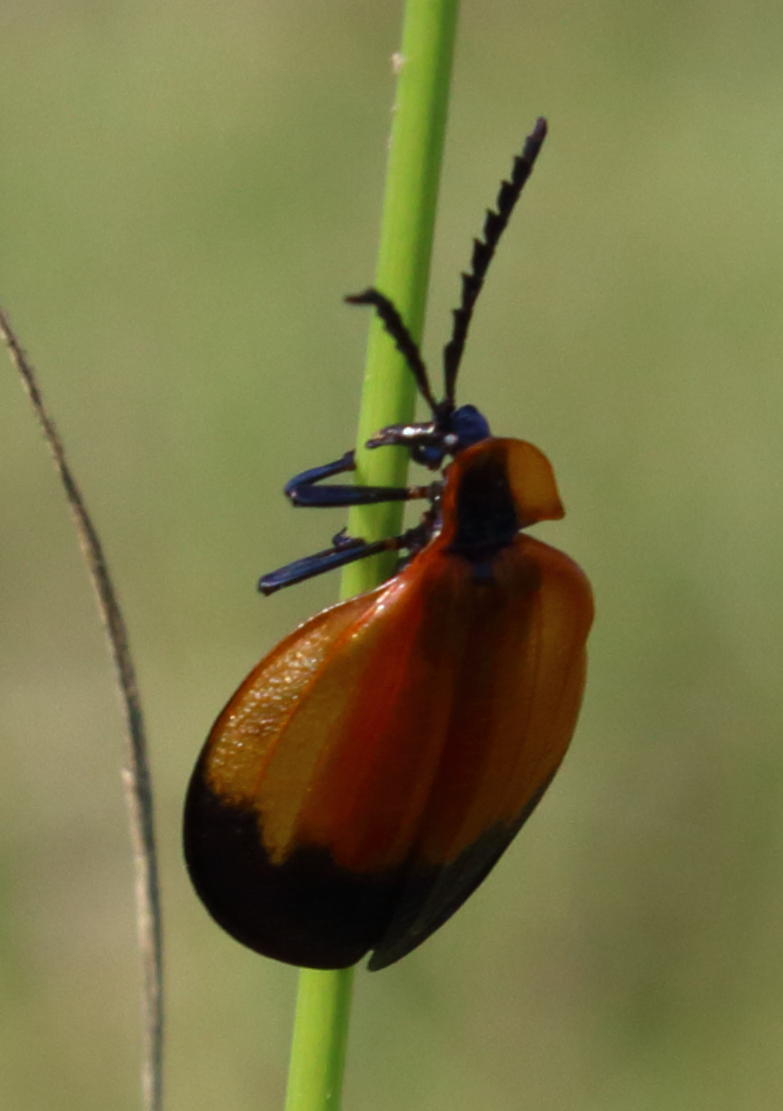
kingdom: Animalia
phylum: Arthropoda
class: Insecta
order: Coleoptera
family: Lycidae
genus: Lycus
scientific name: Lycus
